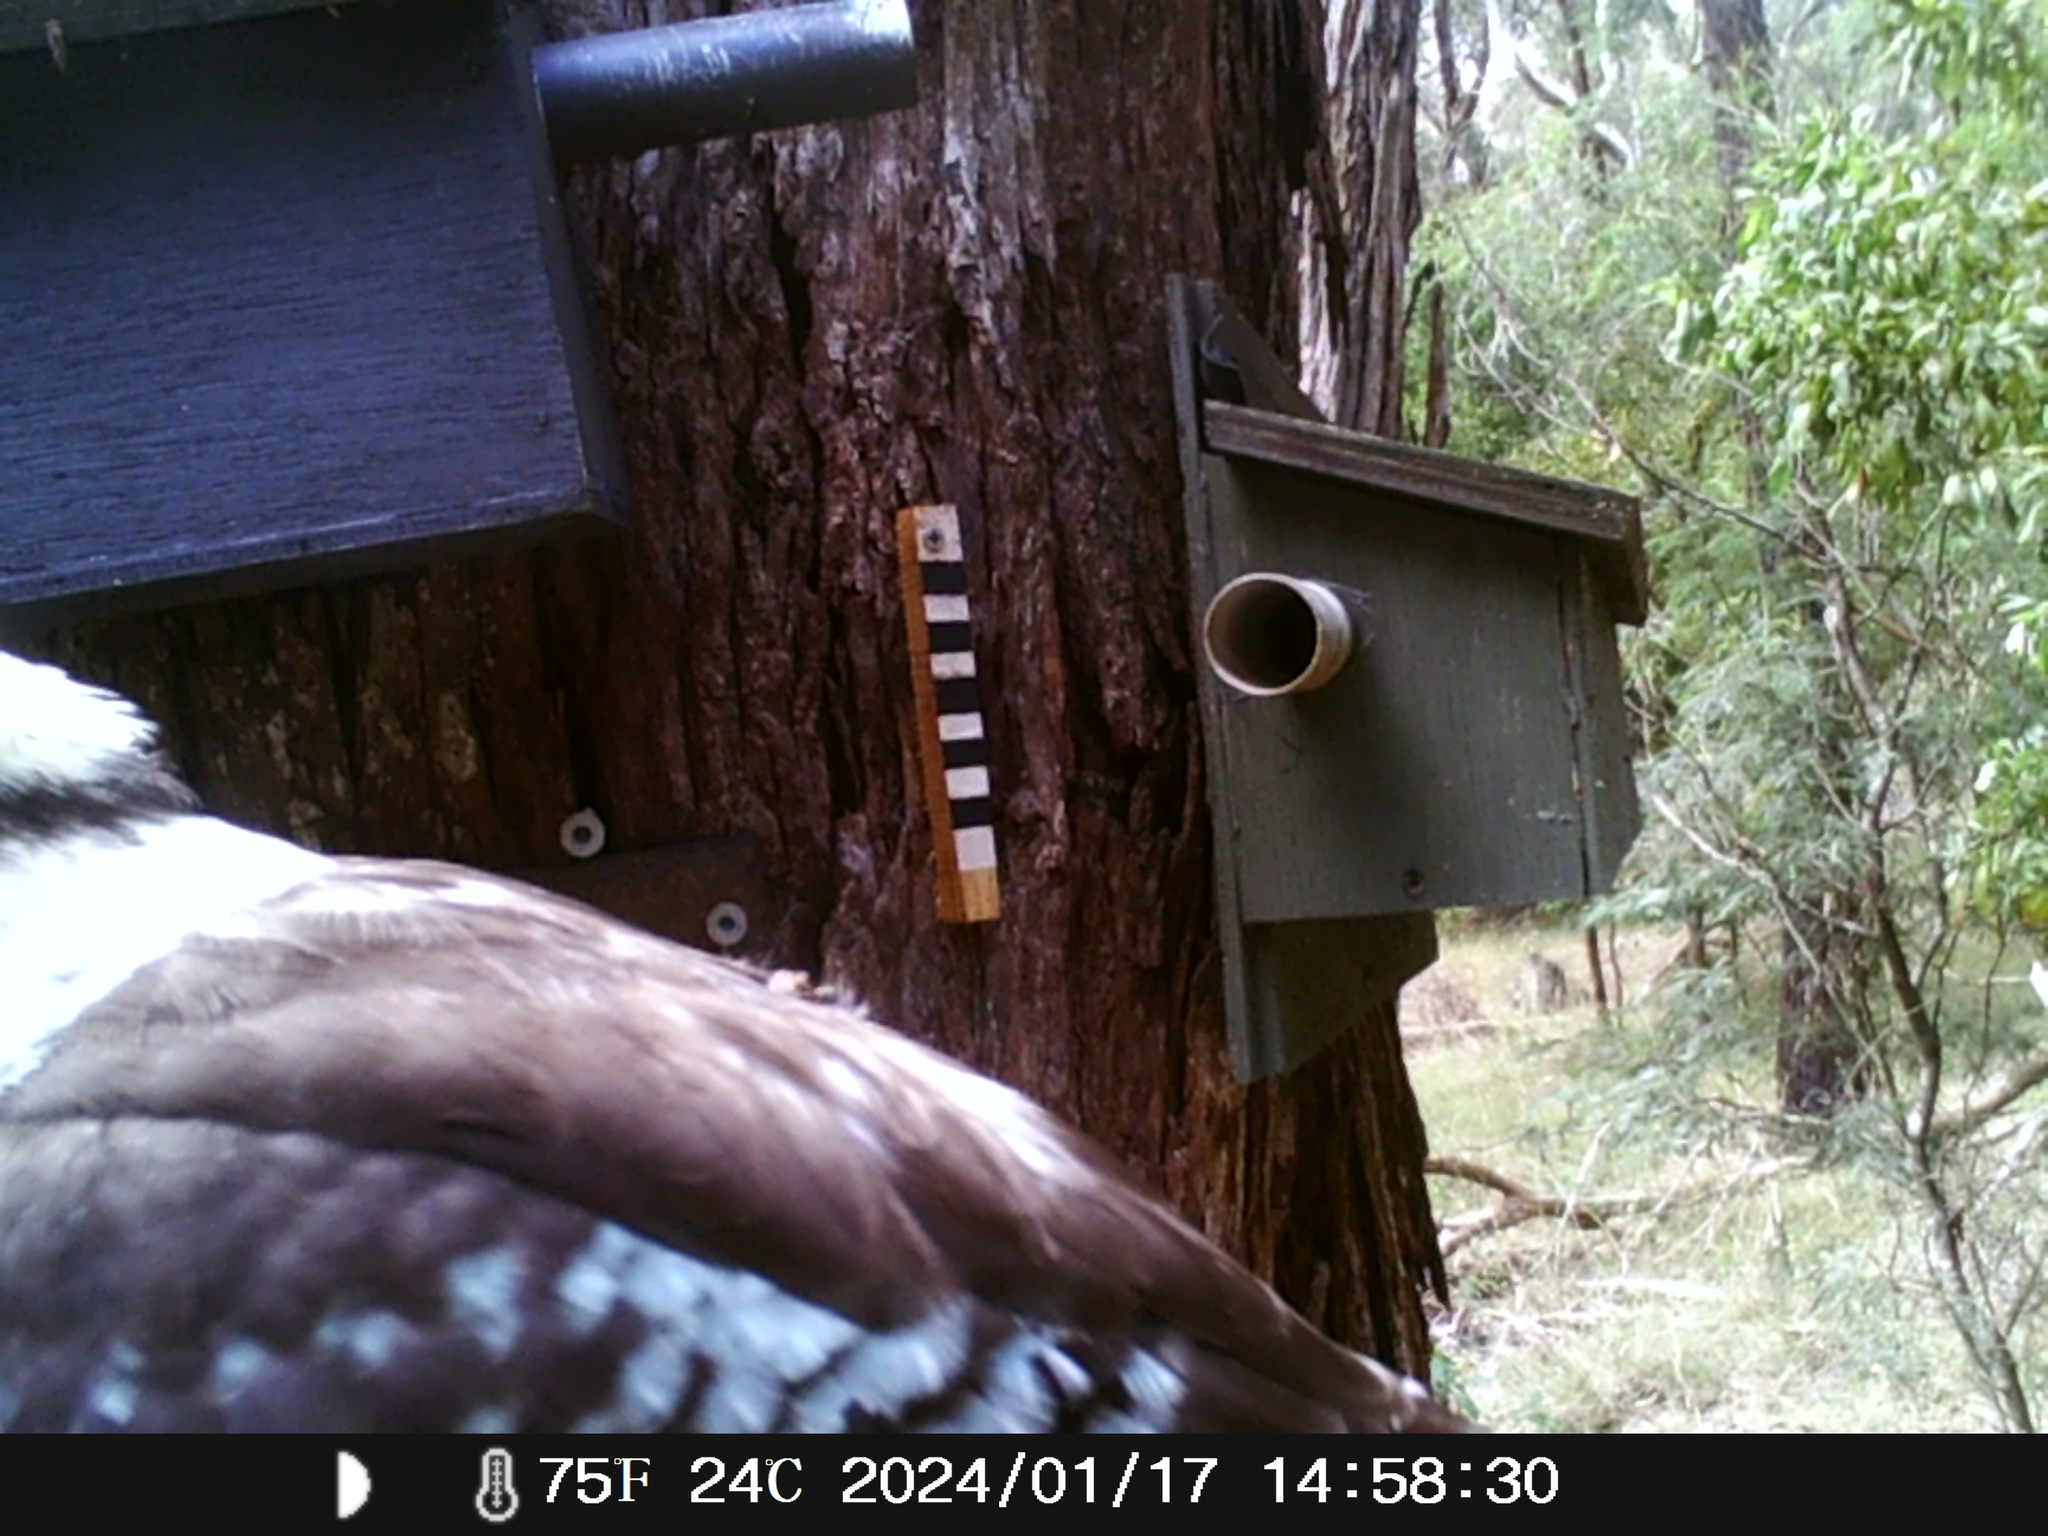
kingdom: Animalia
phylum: Chordata
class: Aves
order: Coraciiformes
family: Alcedinidae
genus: Dacelo
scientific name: Dacelo novaeguineae
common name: Laughing kookaburra
